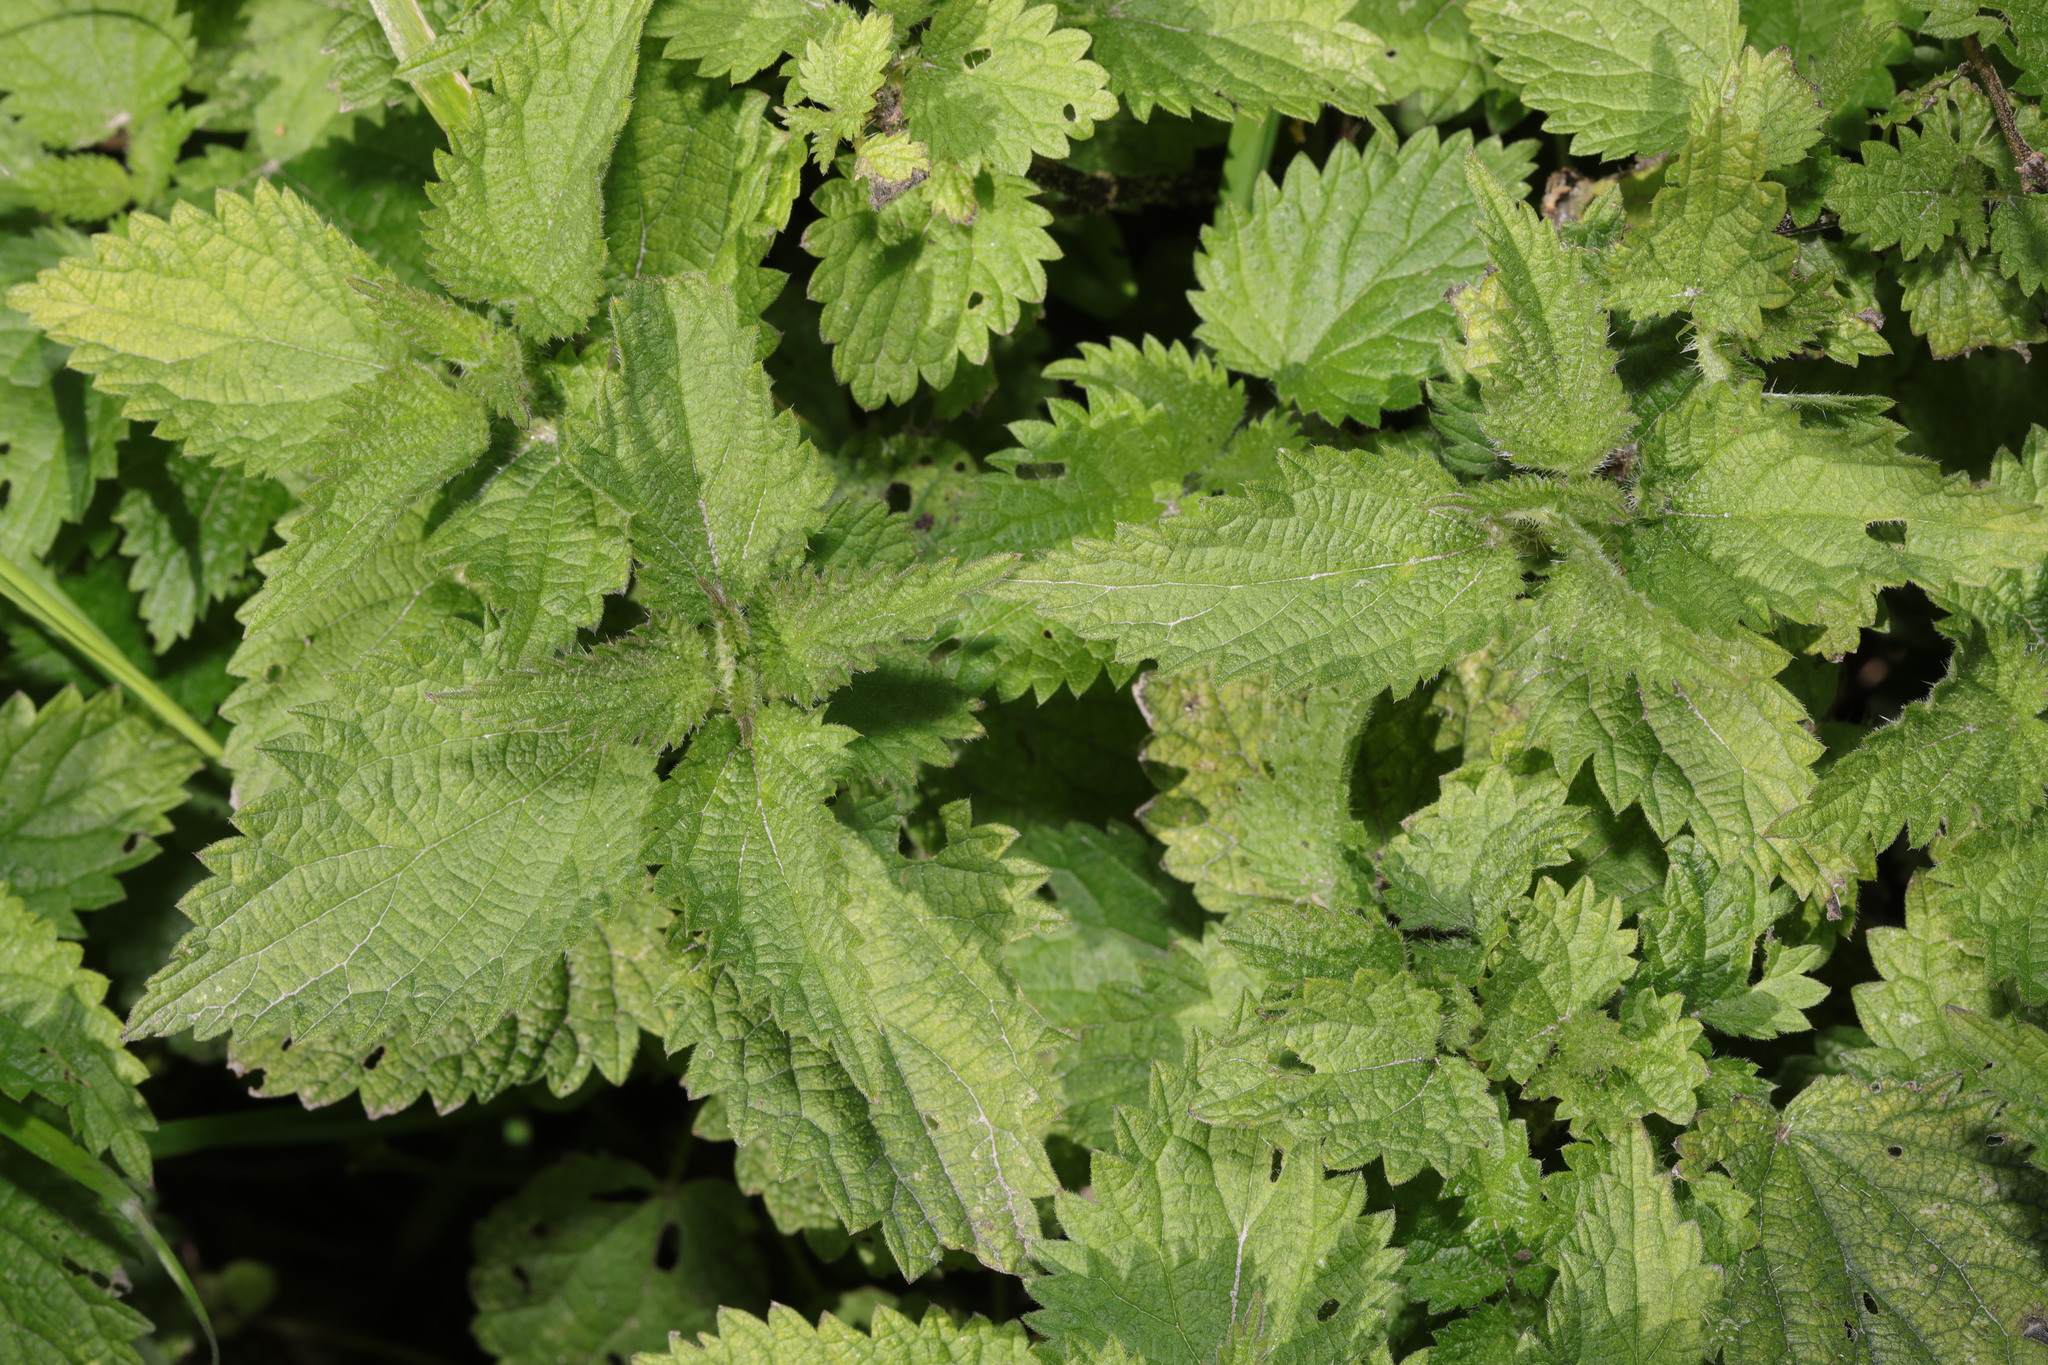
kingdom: Plantae
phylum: Tracheophyta
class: Magnoliopsida
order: Rosales
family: Urticaceae
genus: Urtica
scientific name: Urtica dioica
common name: Common nettle
